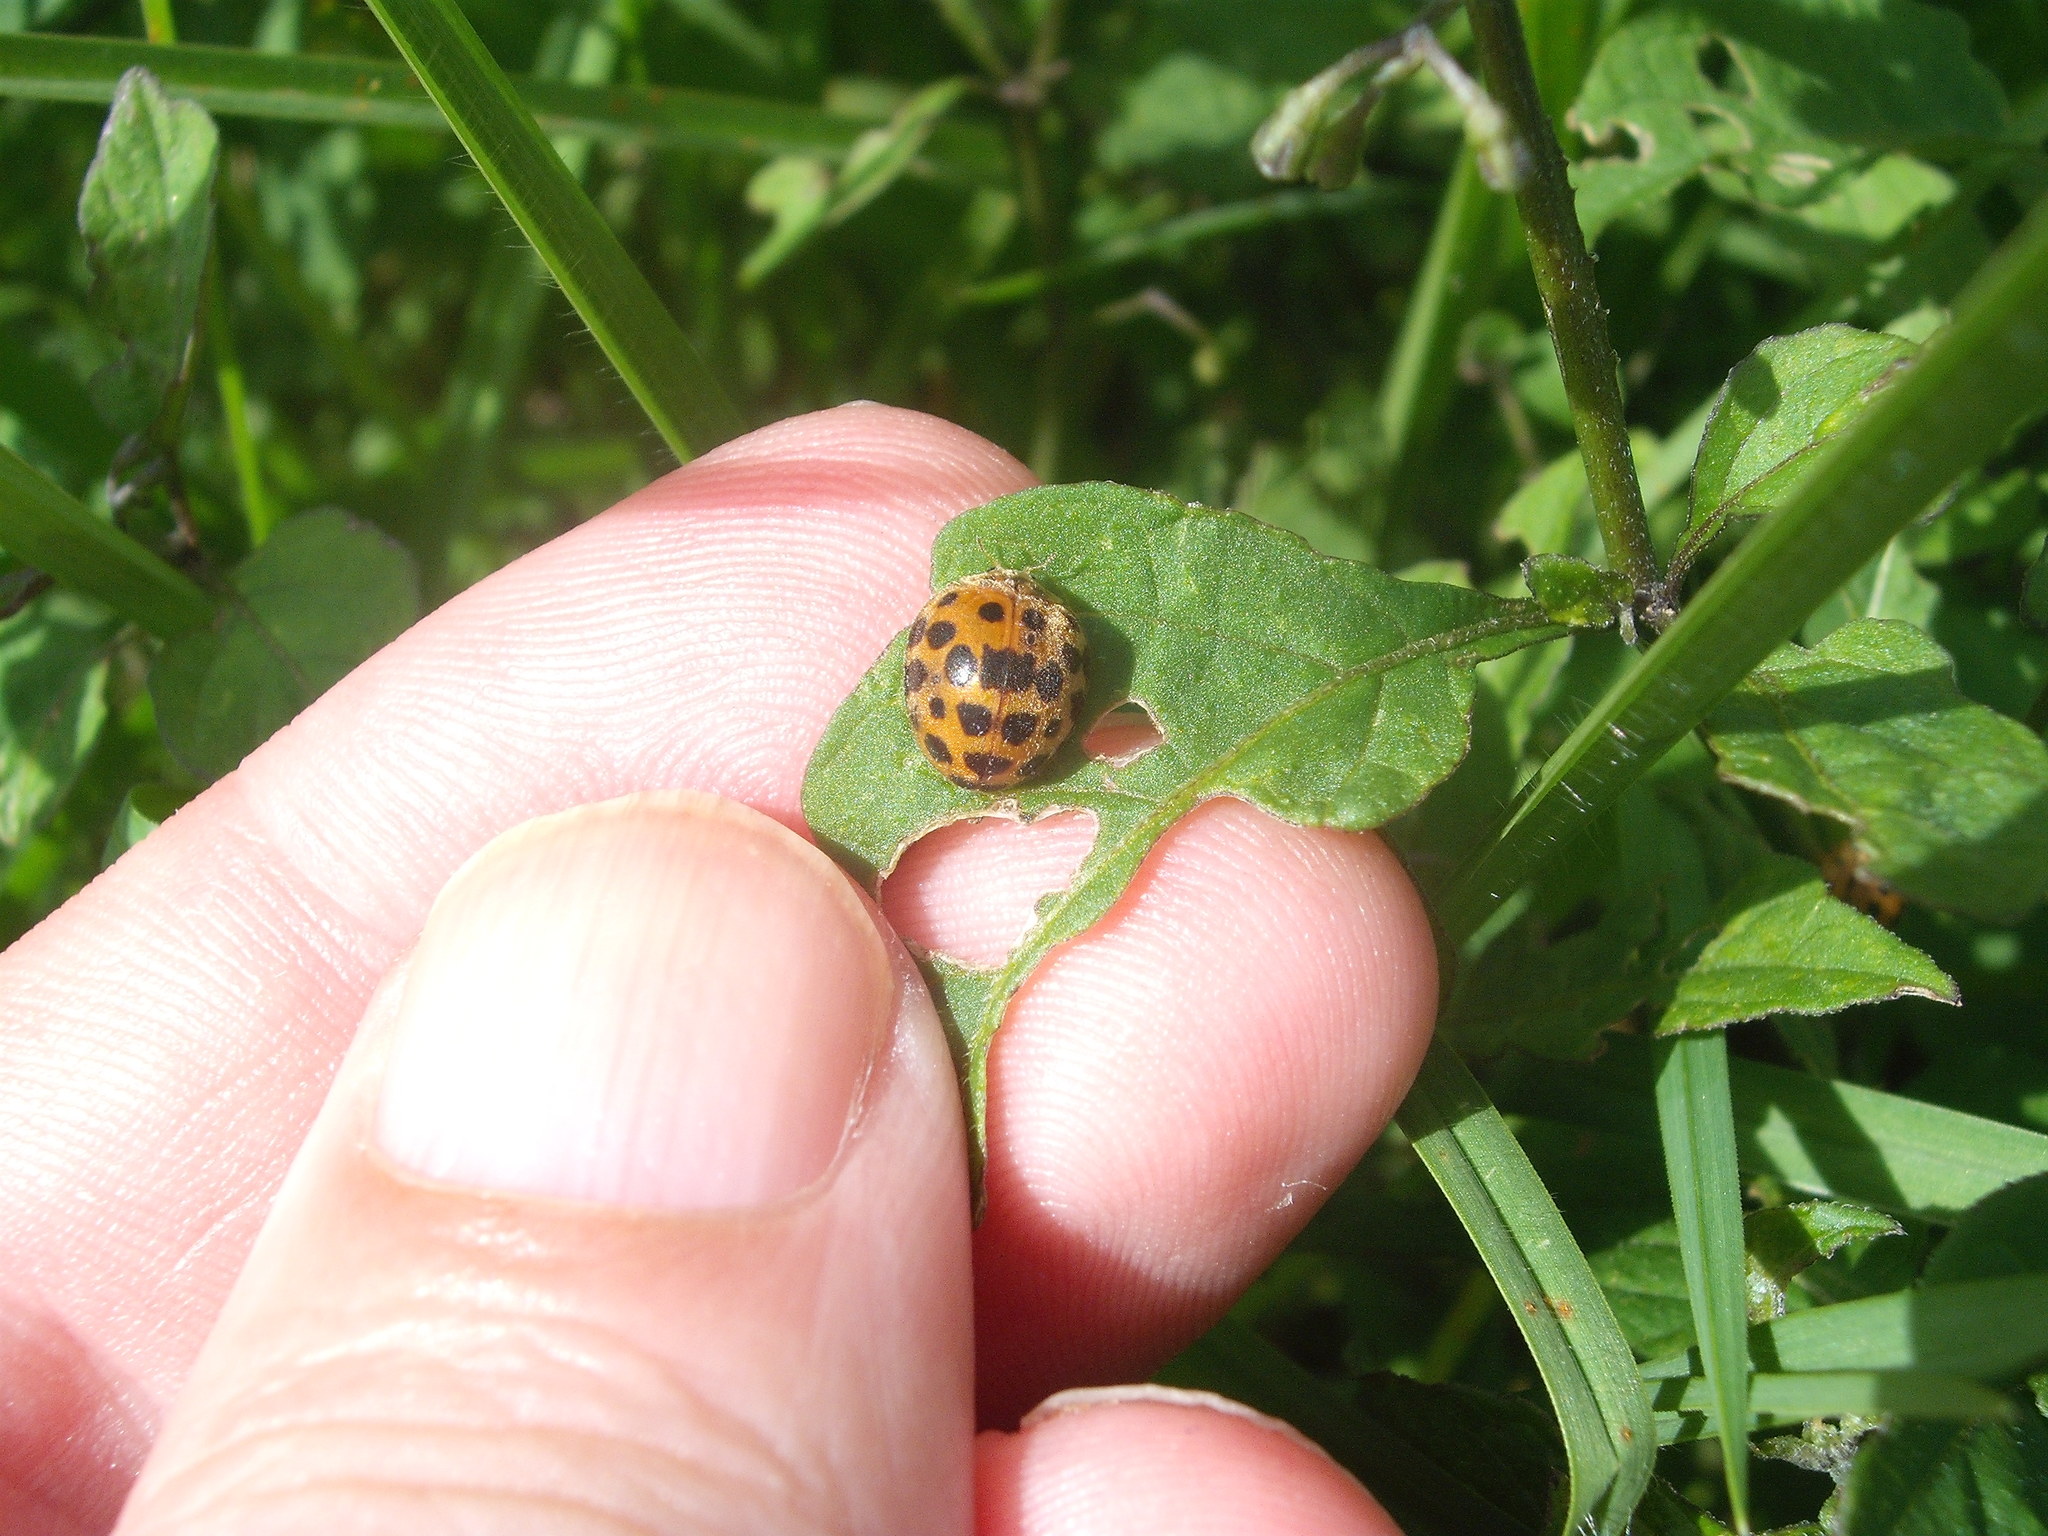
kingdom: Animalia
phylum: Arthropoda
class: Insecta
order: Coleoptera
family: Coccinellidae
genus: Henosepilachna
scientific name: Henosepilachna vigintioctopunctata
